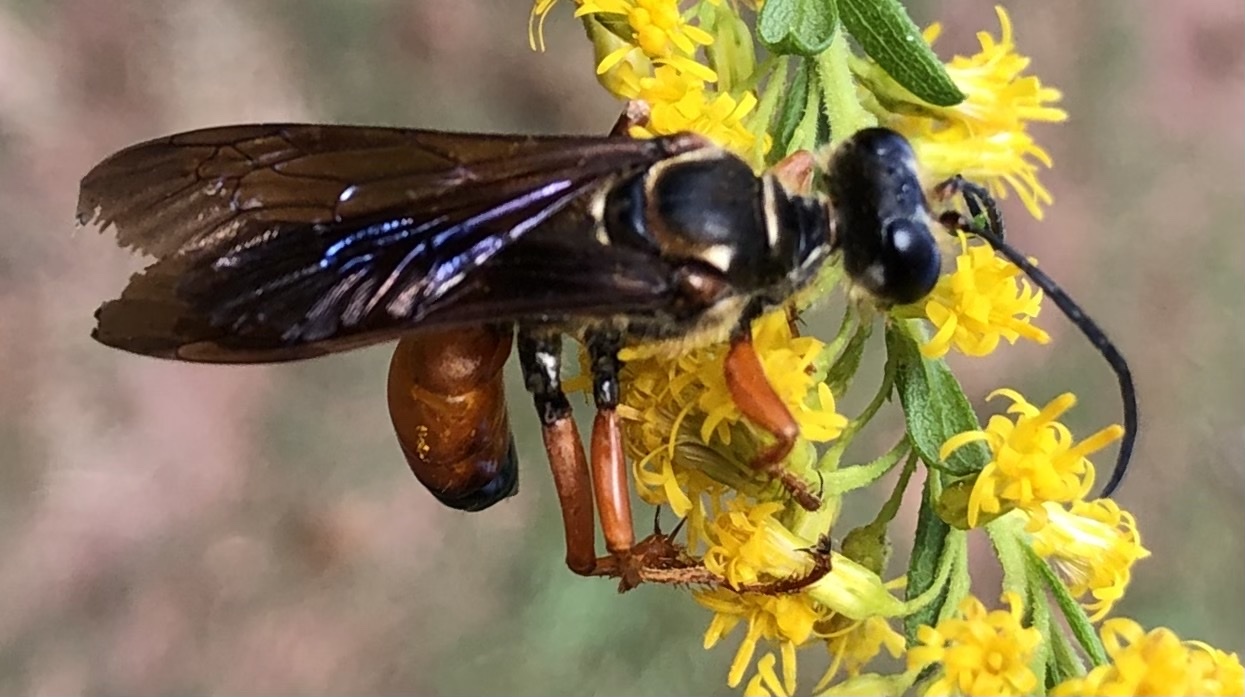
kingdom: Animalia
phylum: Arthropoda
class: Insecta
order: Hymenoptera
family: Sphecidae
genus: Sphex
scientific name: Sphex ichneumoneus
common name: Great golden digger wasp
